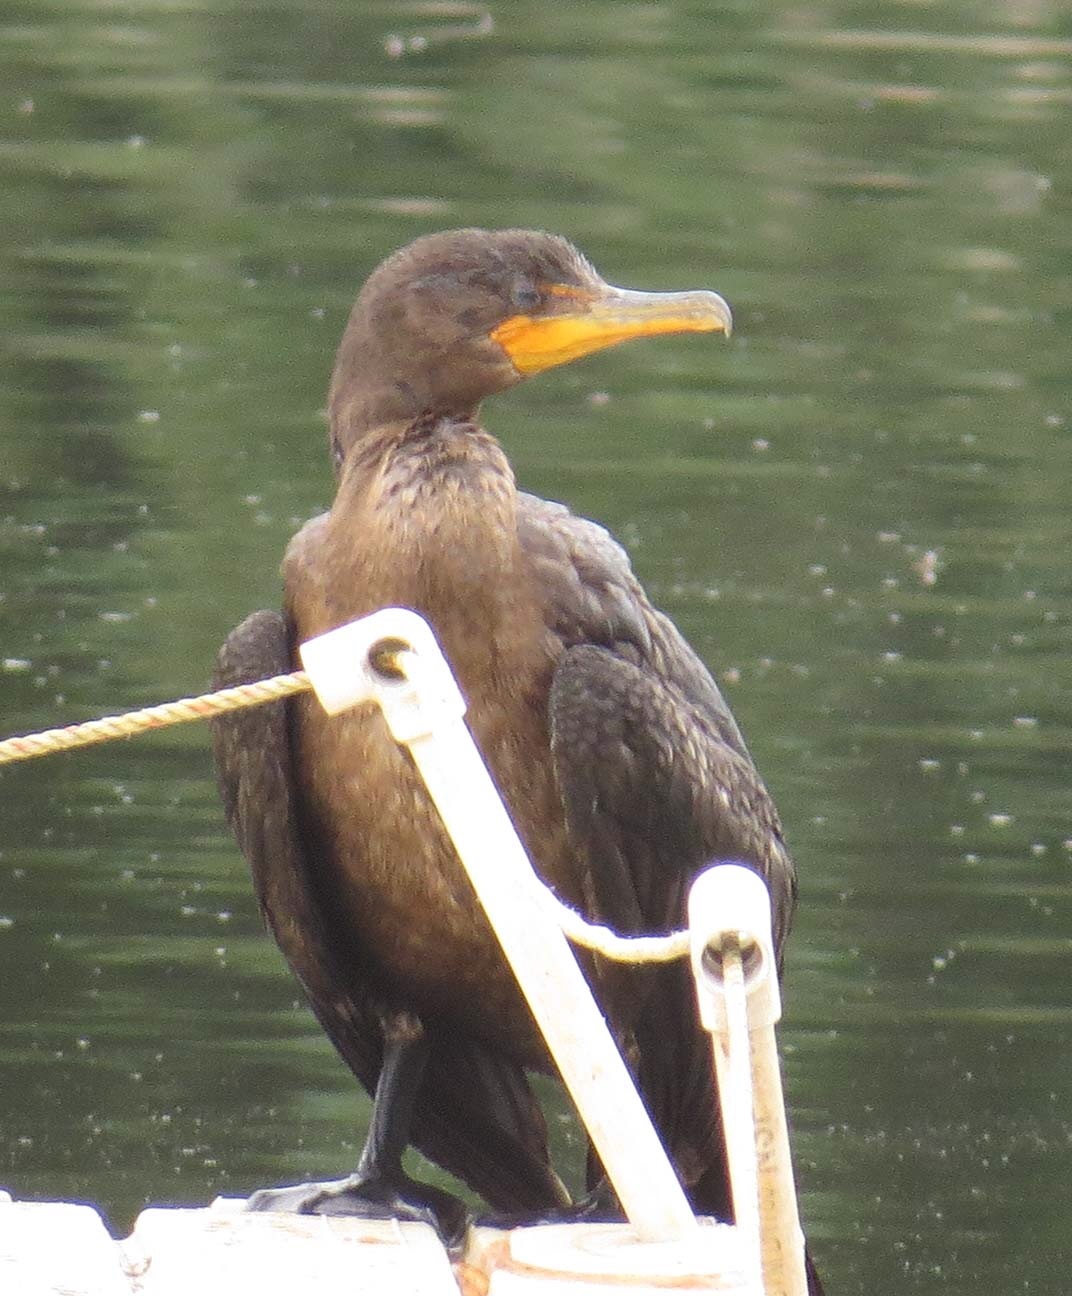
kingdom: Animalia
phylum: Chordata
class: Aves
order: Suliformes
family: Phalacrocoracidae
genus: Phalacrocorax
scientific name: Phalacrocorax auritus
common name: Double-crested cormorant
